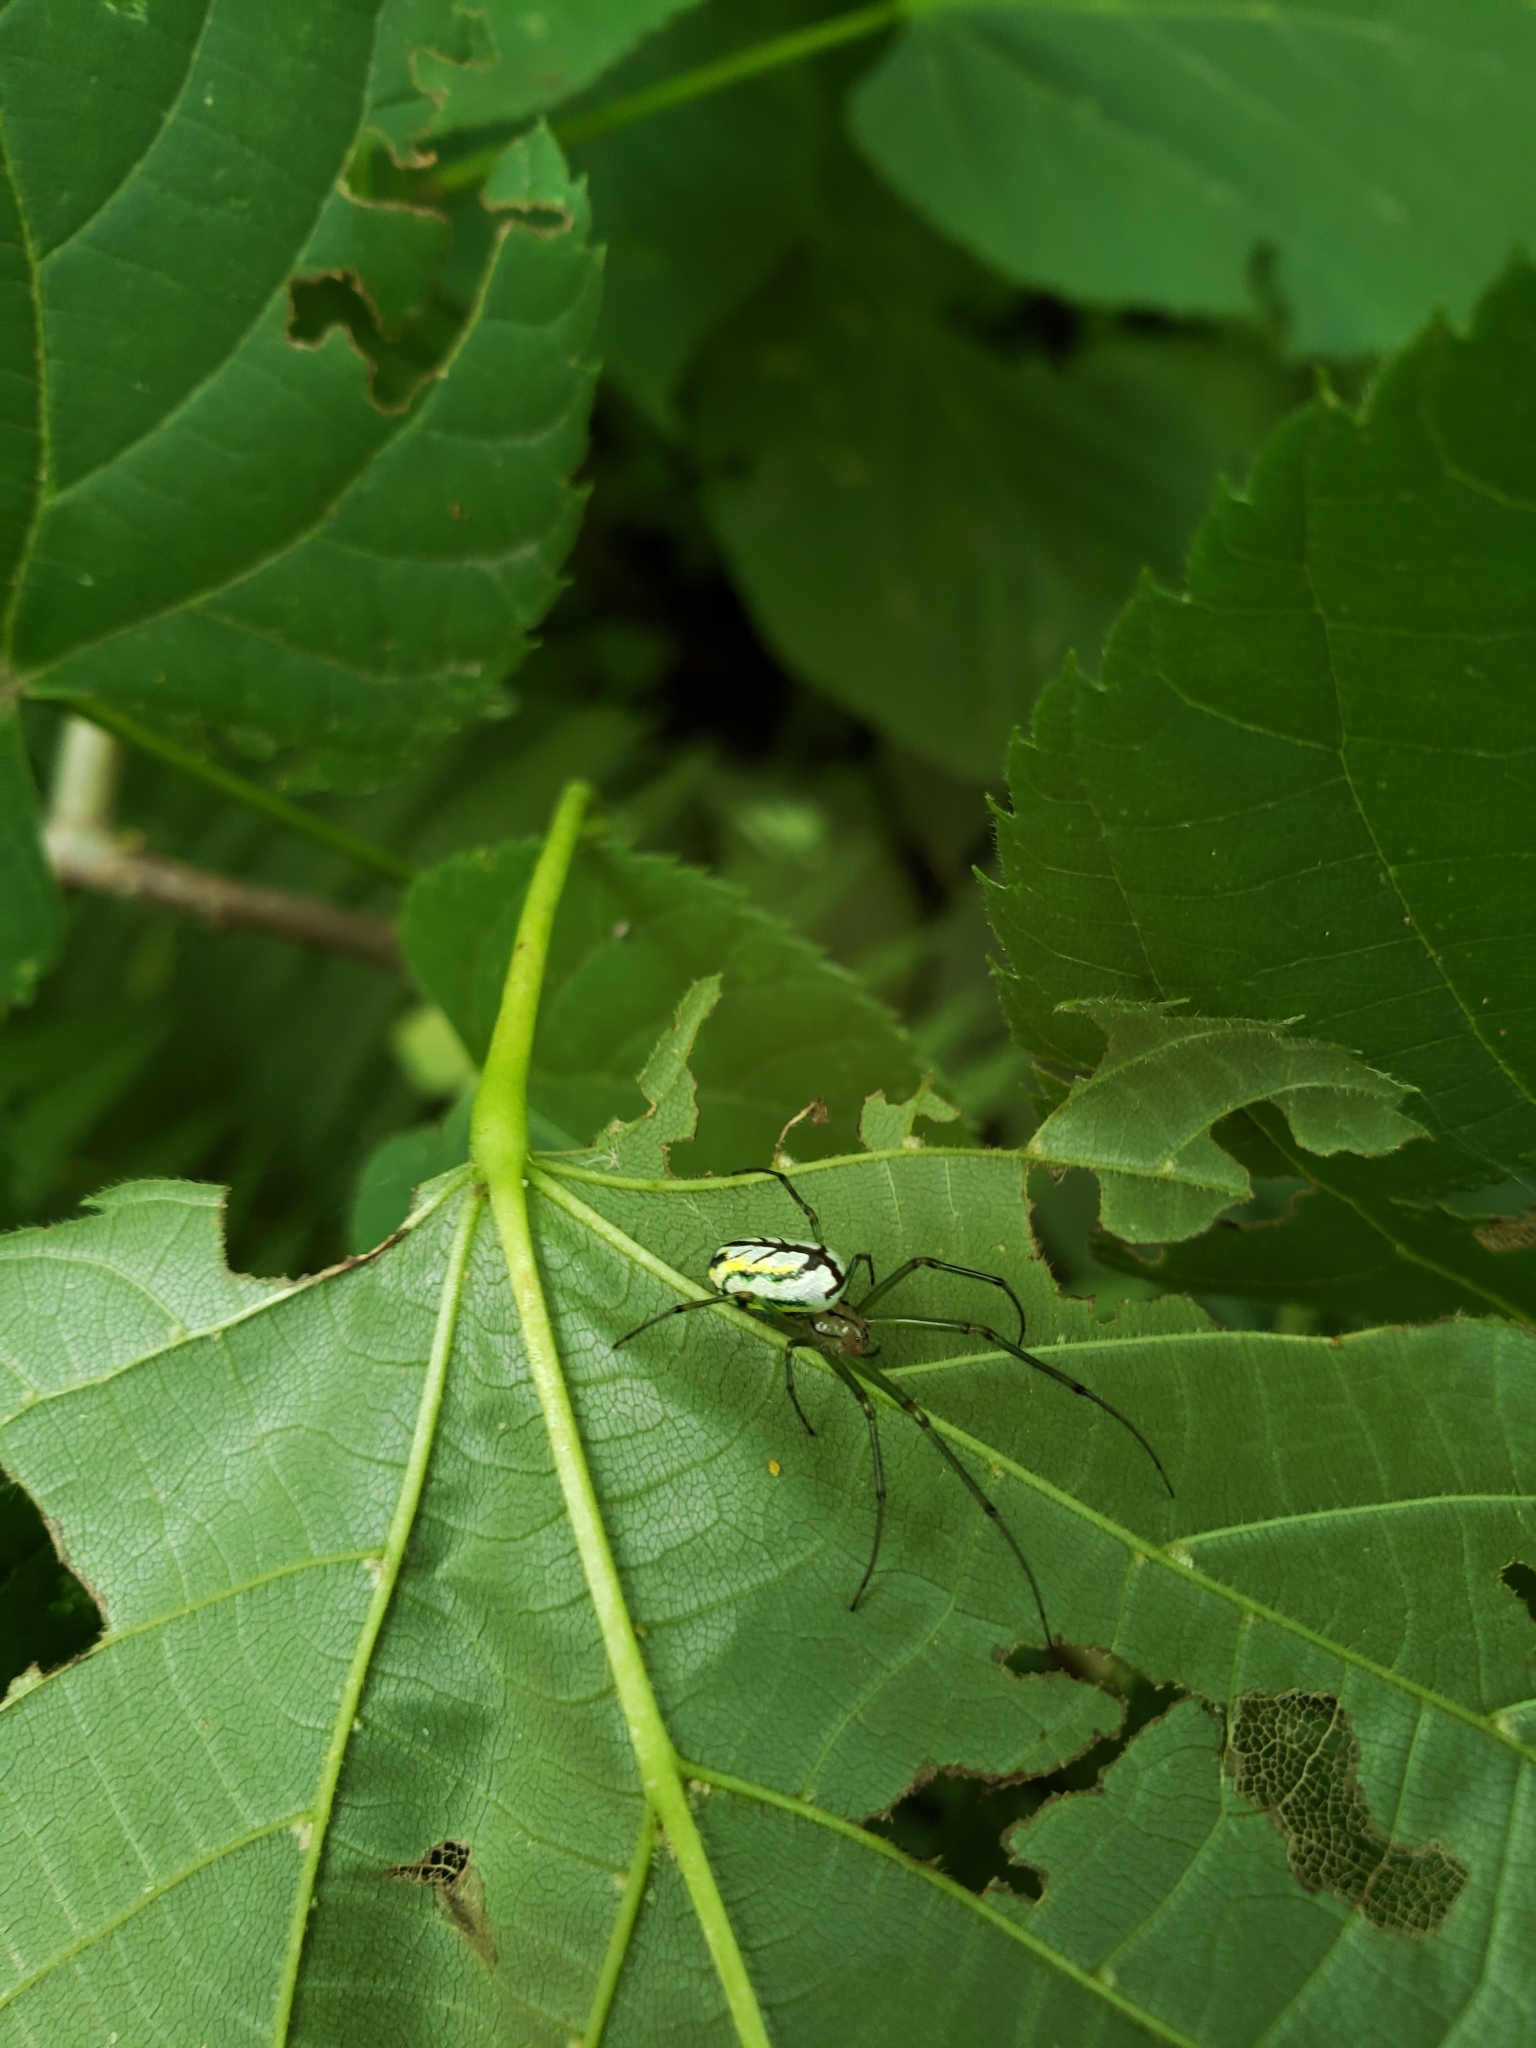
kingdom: Animalia
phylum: Arthropoda
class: Arachnida
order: Araneae
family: Tetragnathidae
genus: Leucauge
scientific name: Leucauge venusta
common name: Longjawed orb weavers
